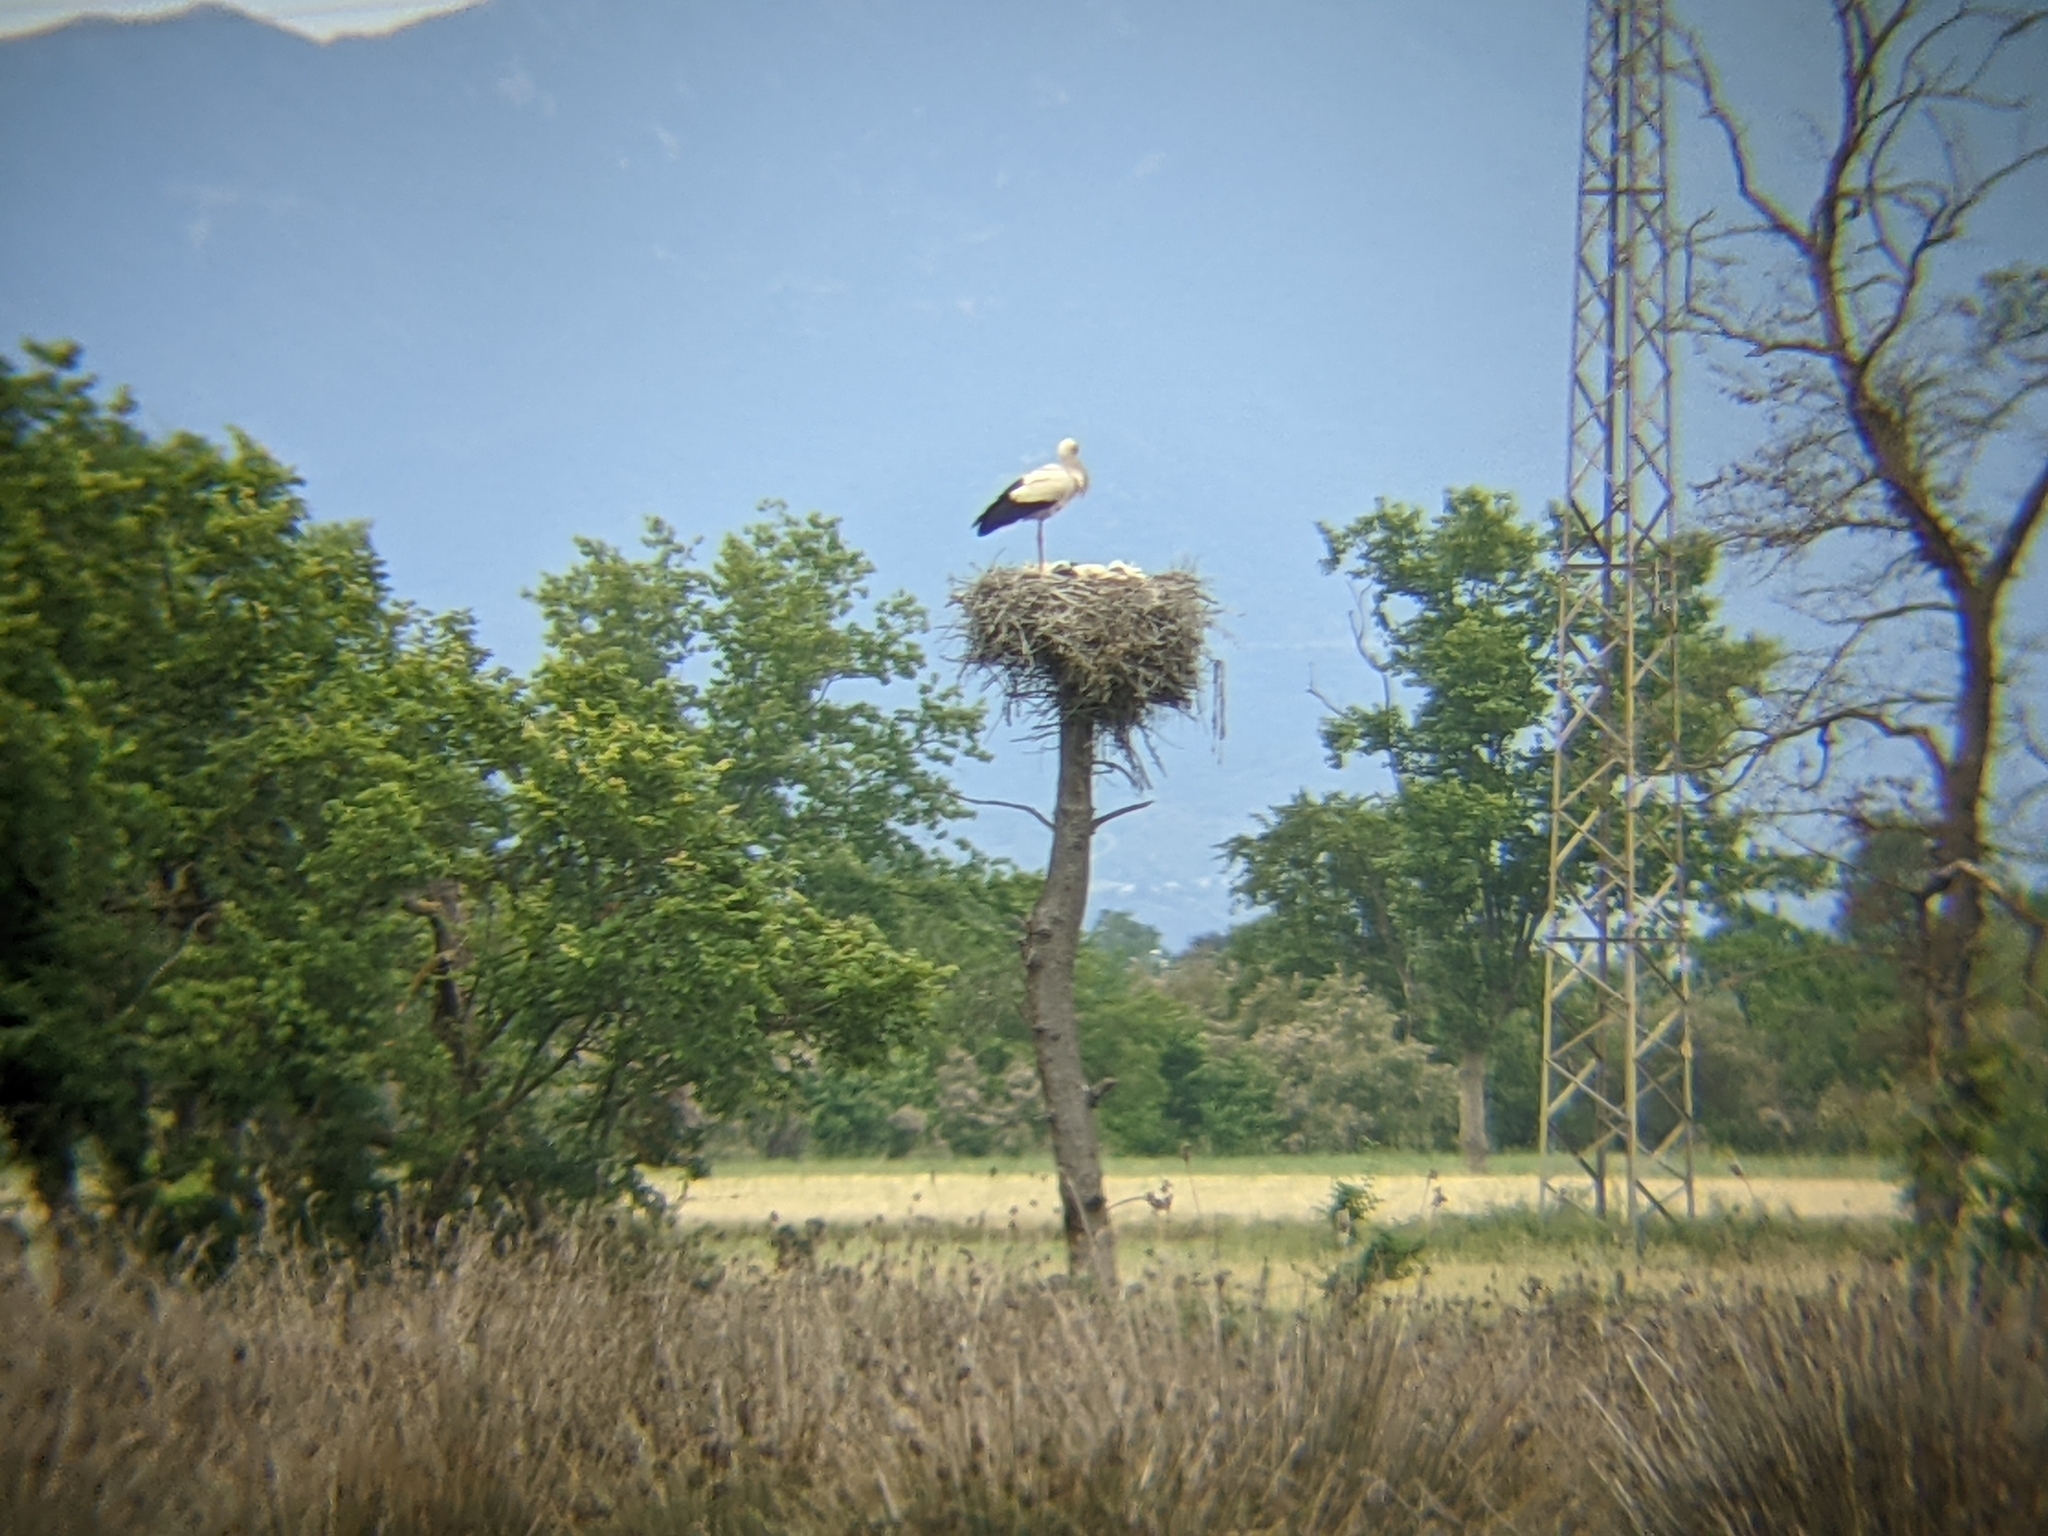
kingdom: Animalia
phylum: Chordata
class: Aves
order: Ciconiiformes
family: Ciconiidae
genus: Ciconia
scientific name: Ciconia ciconia
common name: White stork
